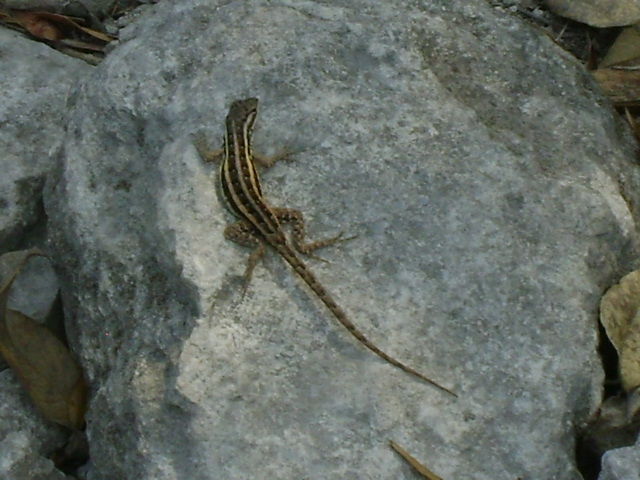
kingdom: Animalia
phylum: Chordata
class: Squamata
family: Phrynosomatidae
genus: Sceloporus
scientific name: Sceloporus variabilis
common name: Rosebelly lizard
